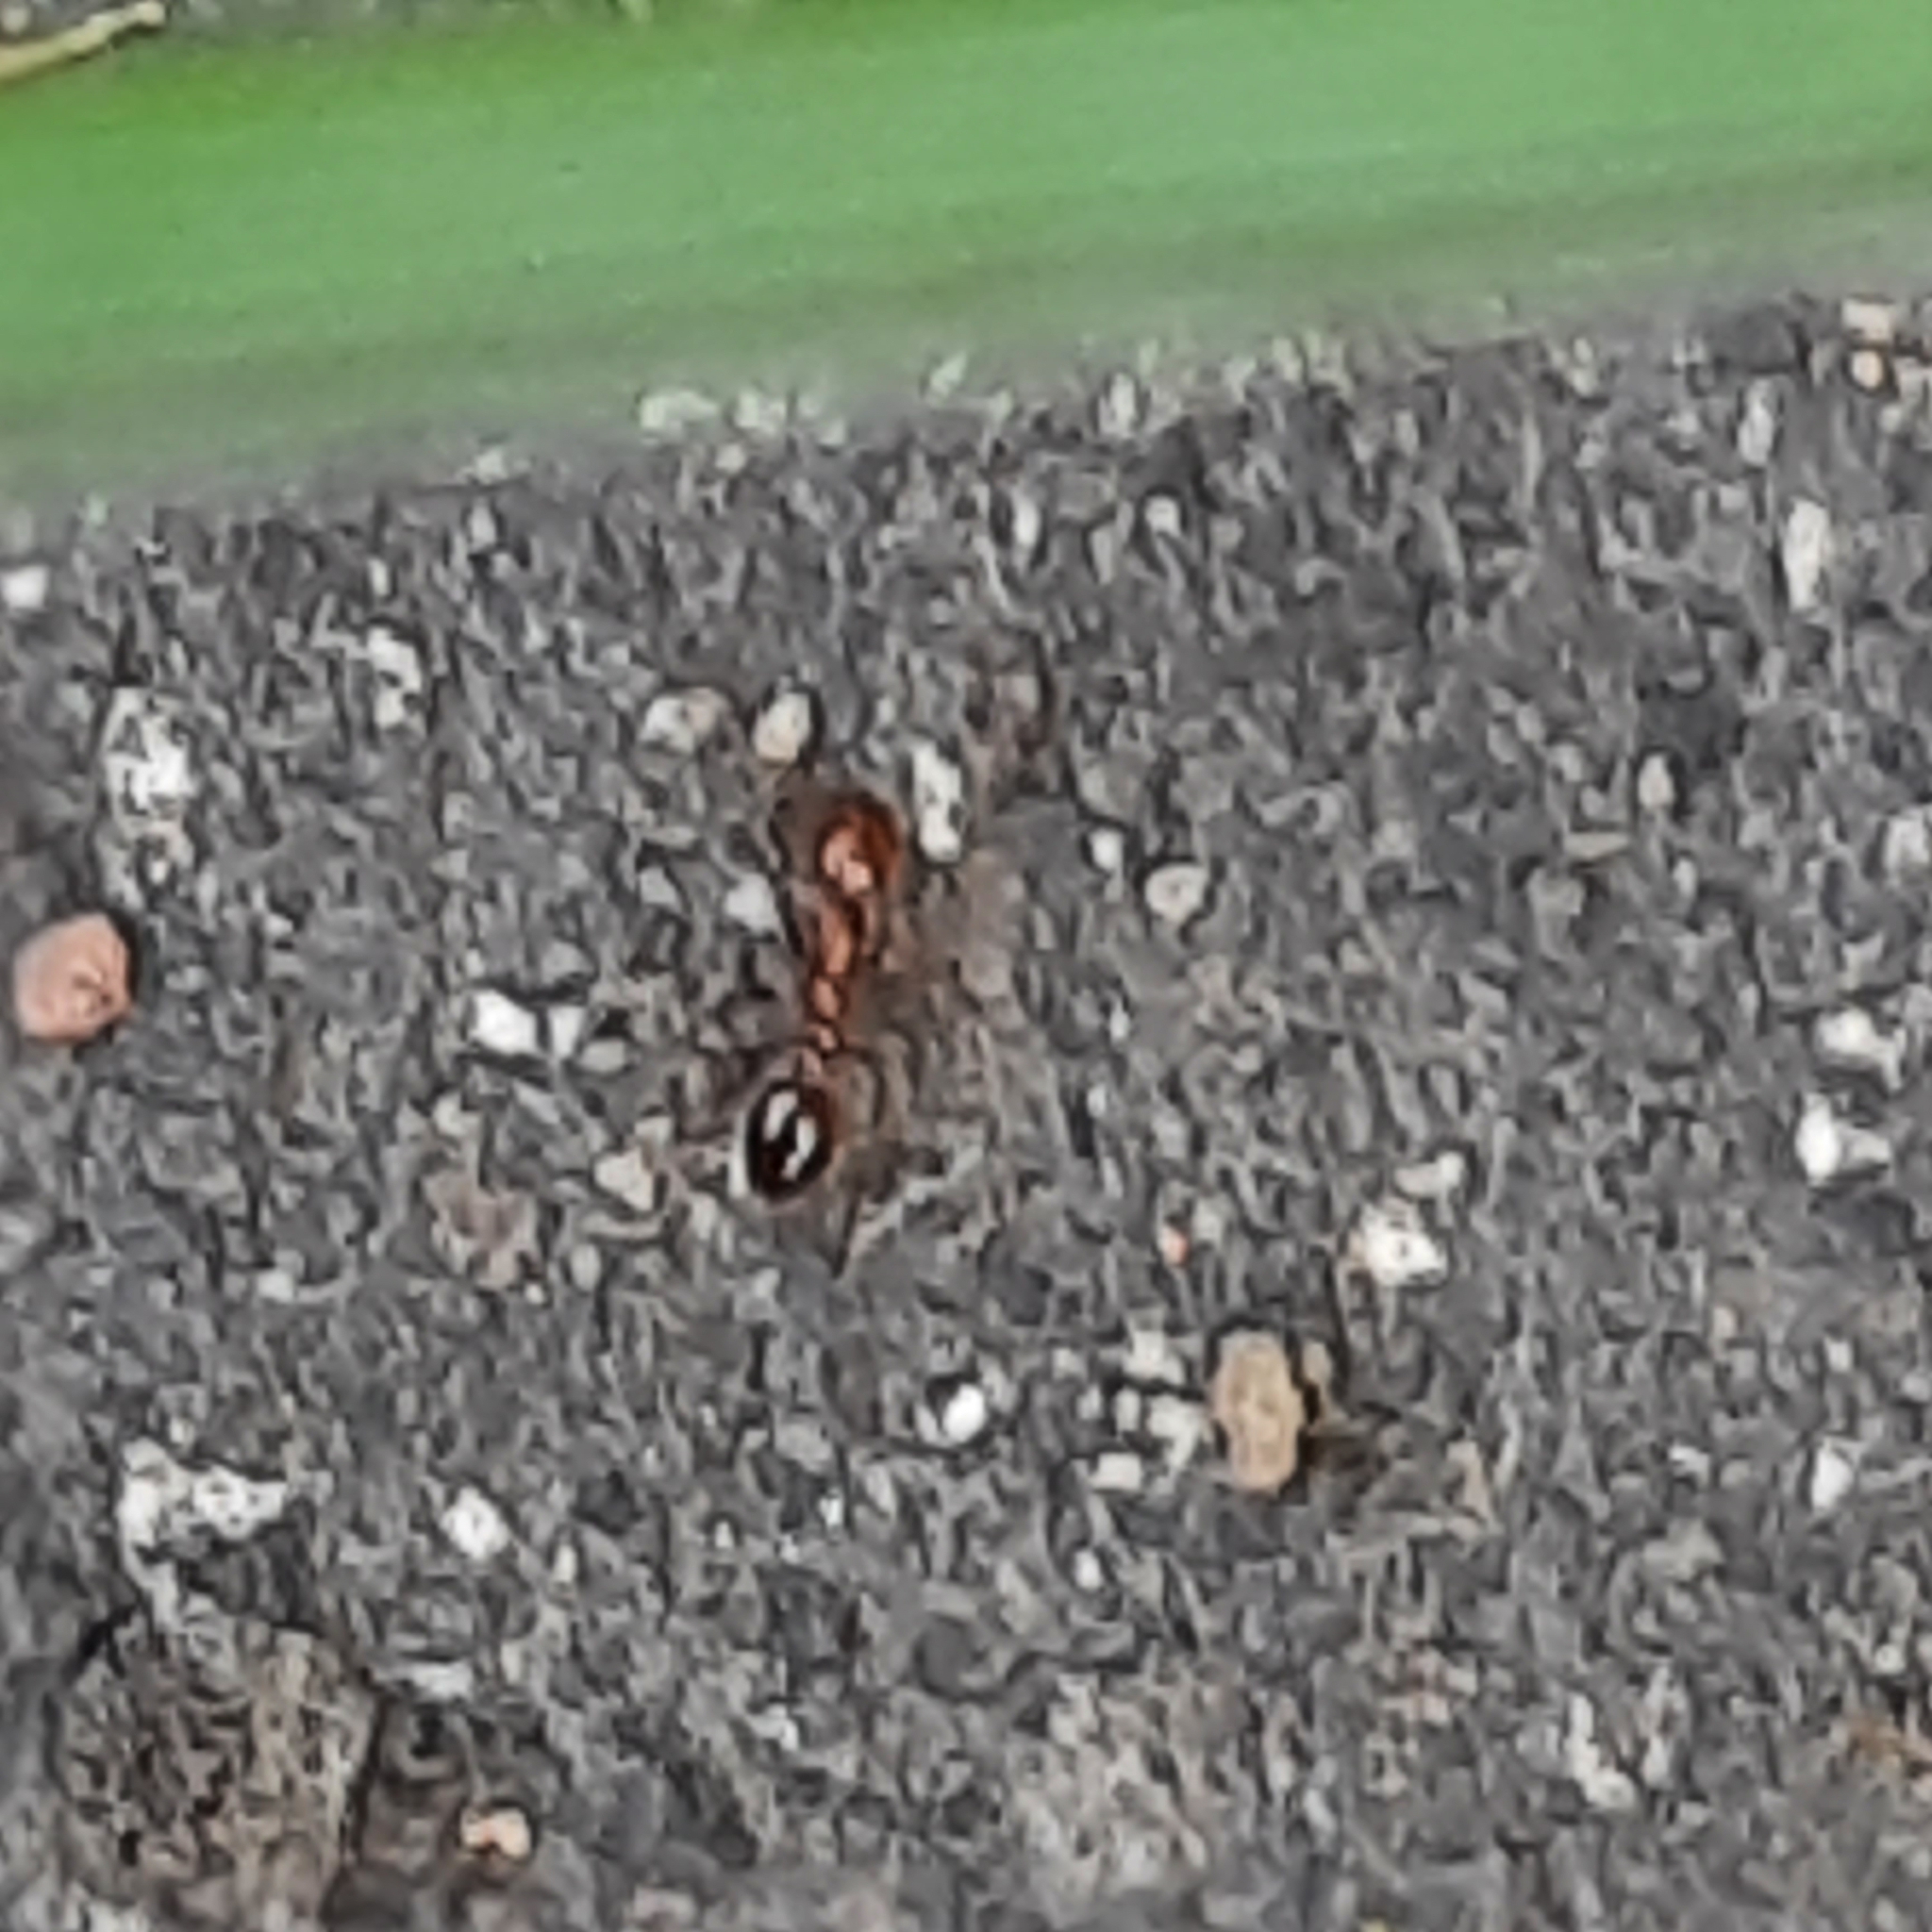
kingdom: Animalia
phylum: Arthropoda
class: Insecta
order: Hymenoptera
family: Formicidae
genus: Solenopsis
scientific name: Solenopsis geminata
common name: Tropical fire ant
